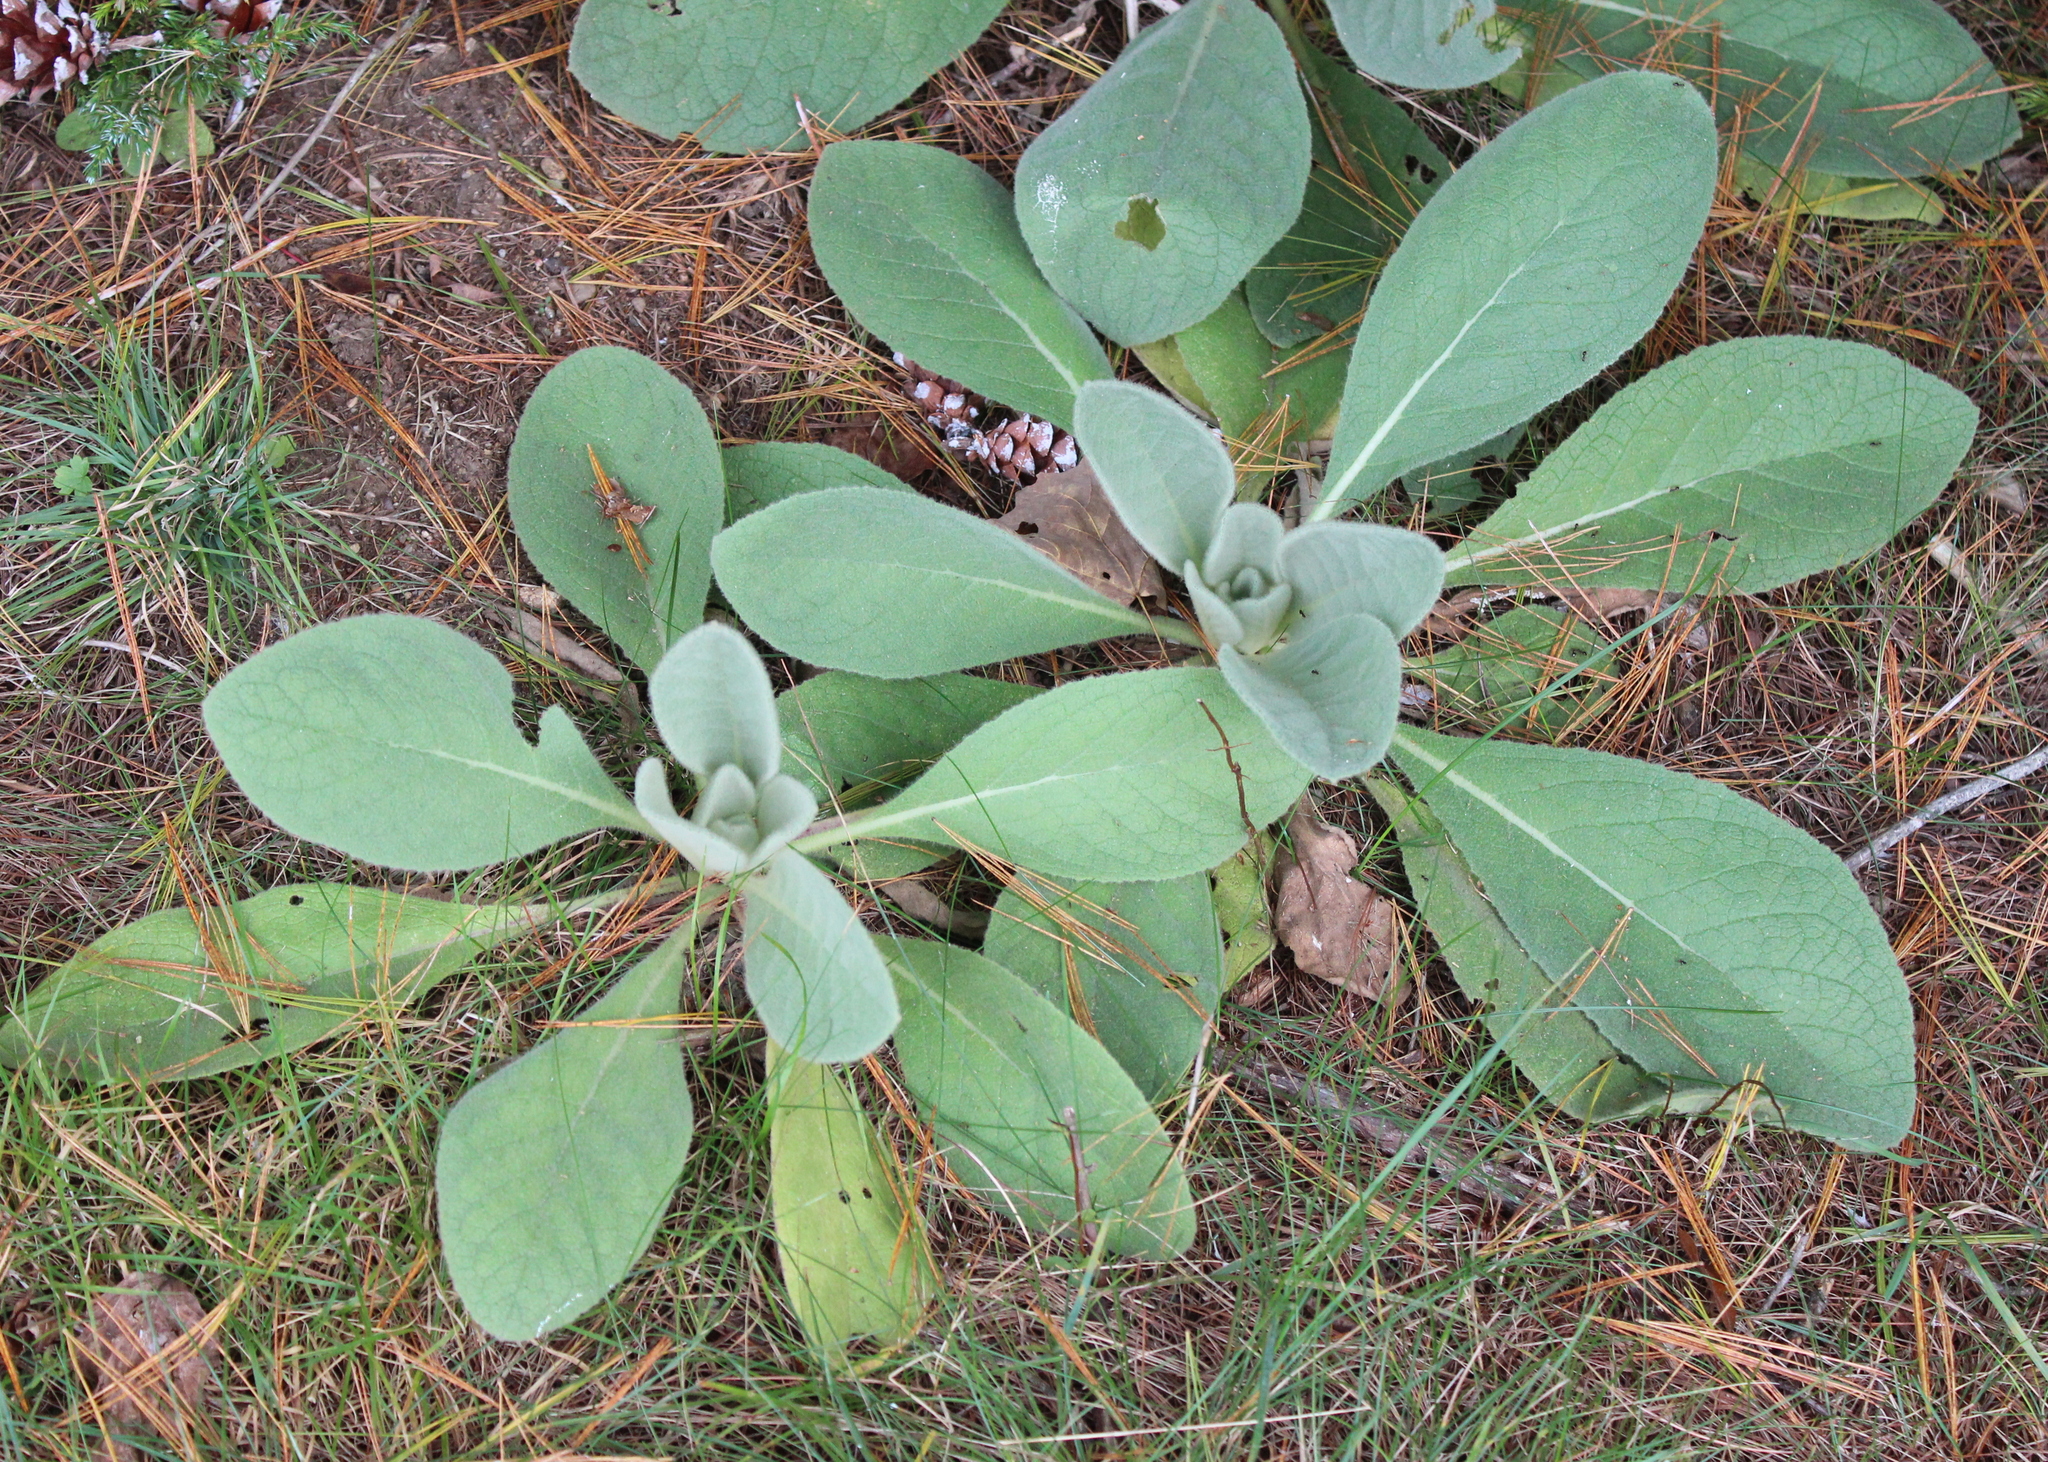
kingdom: Plantae
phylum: Tracheophyta
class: Magnoliopsida
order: Lamiales
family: Scrophulariaceae
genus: Verbascum
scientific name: Verbascum thapsus
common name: Common mullein
